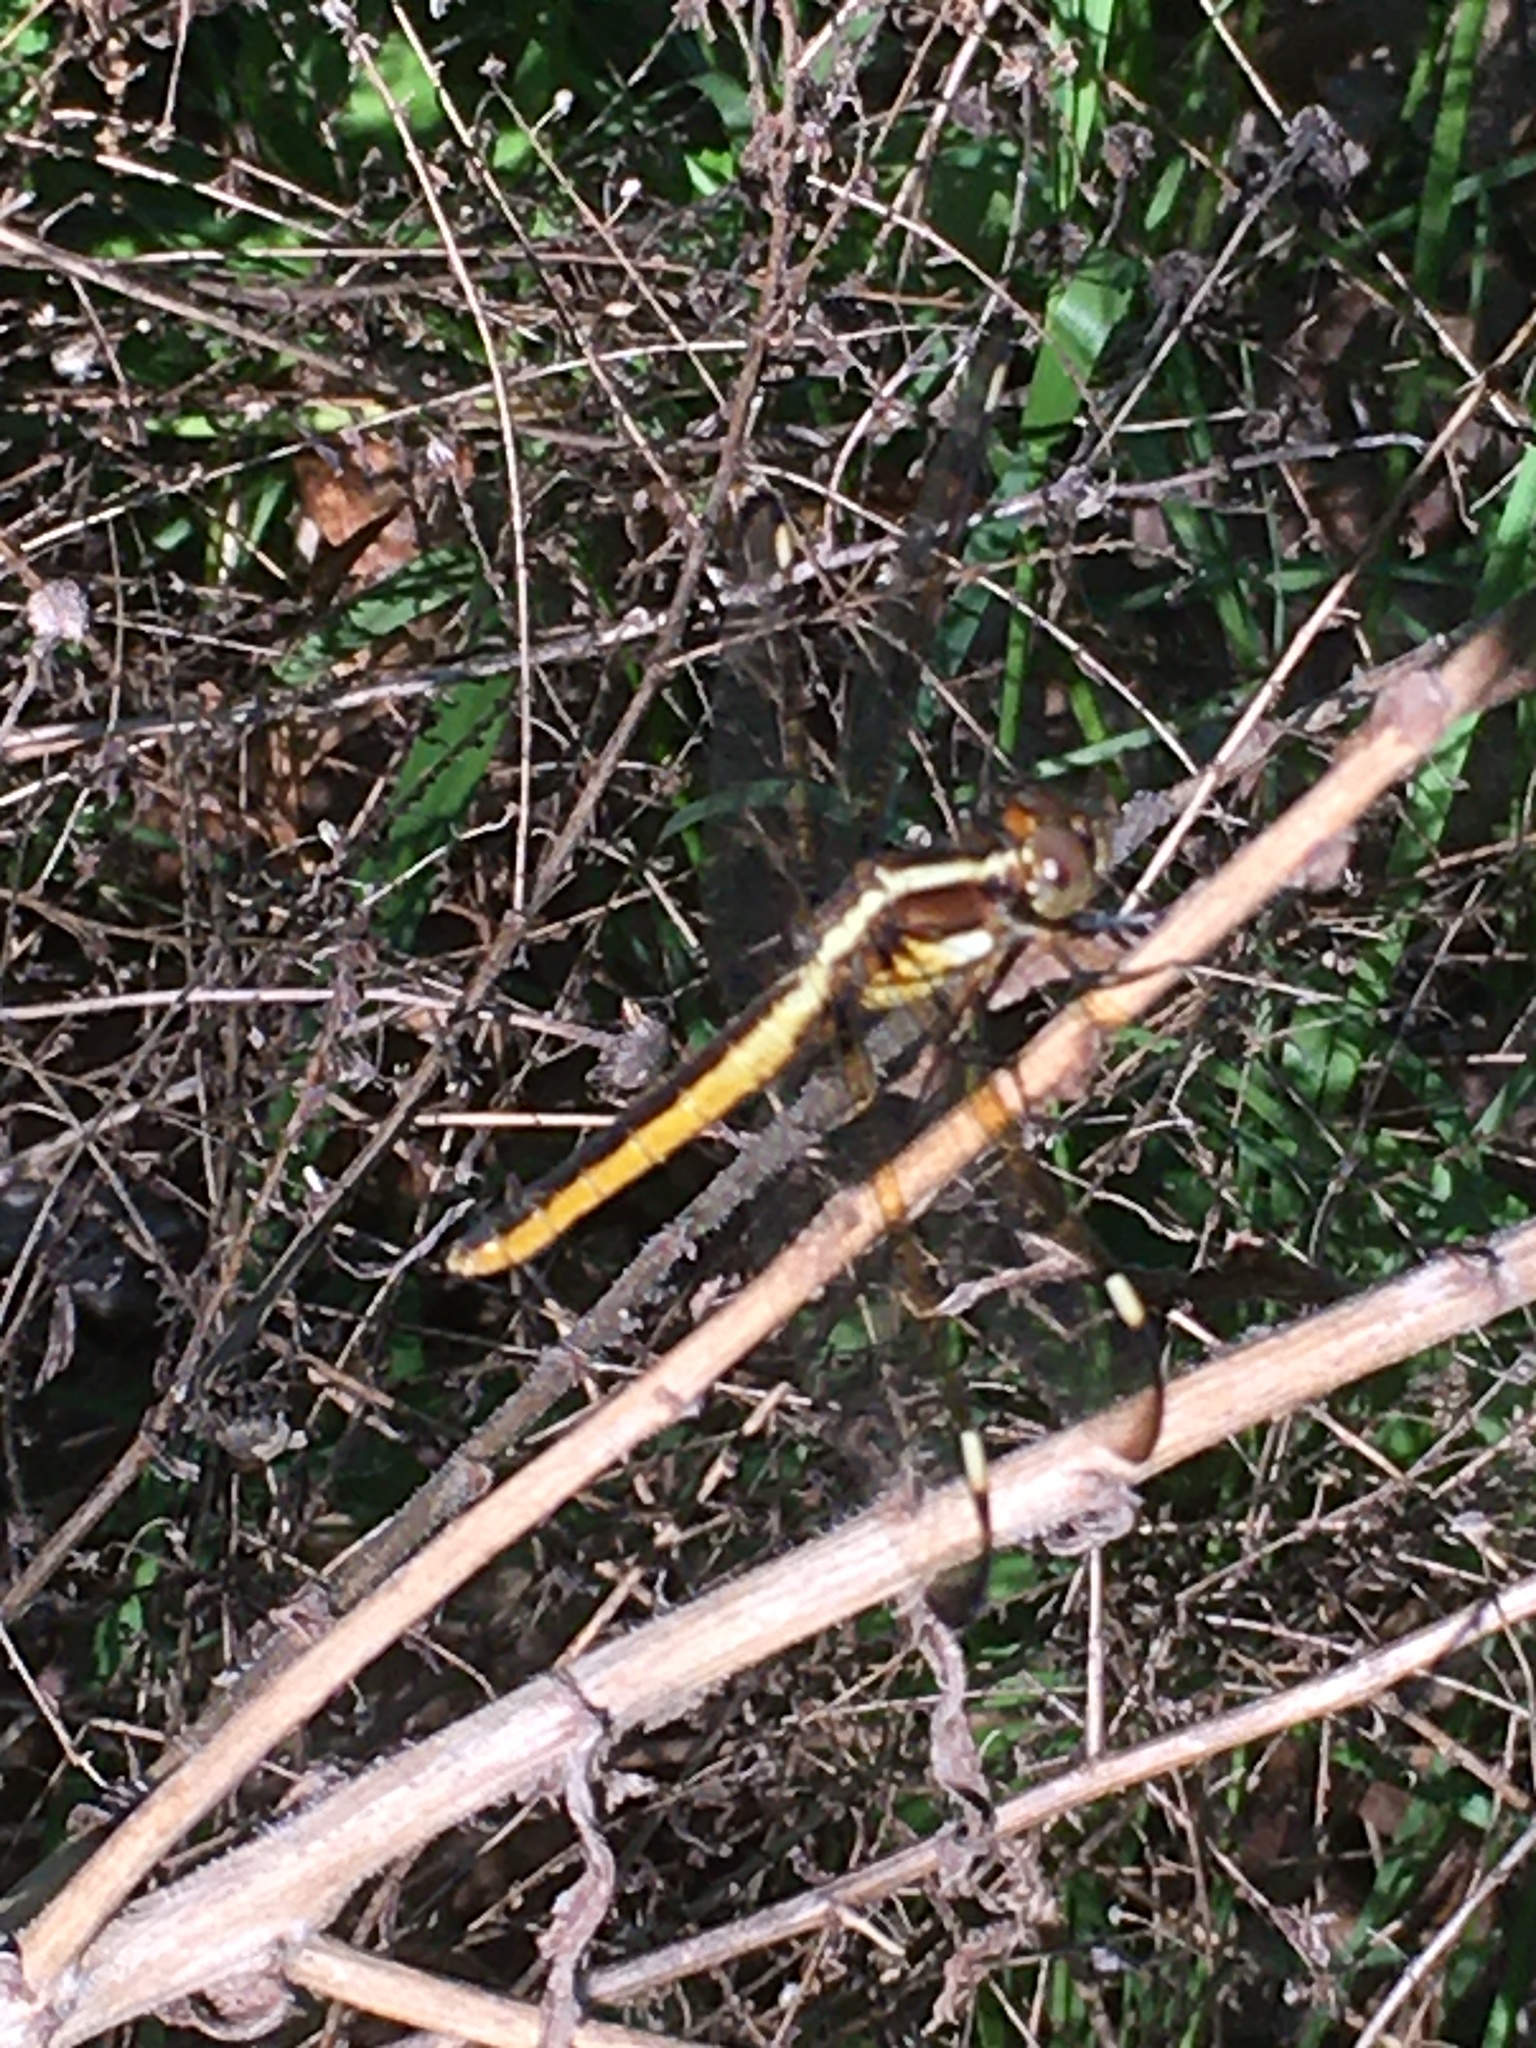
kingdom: Animalia
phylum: Arthropoda
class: Insecta
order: Odonata
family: Libellulidae
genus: Libellula
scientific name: Libellula cyanea
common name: Spangled skimmer
